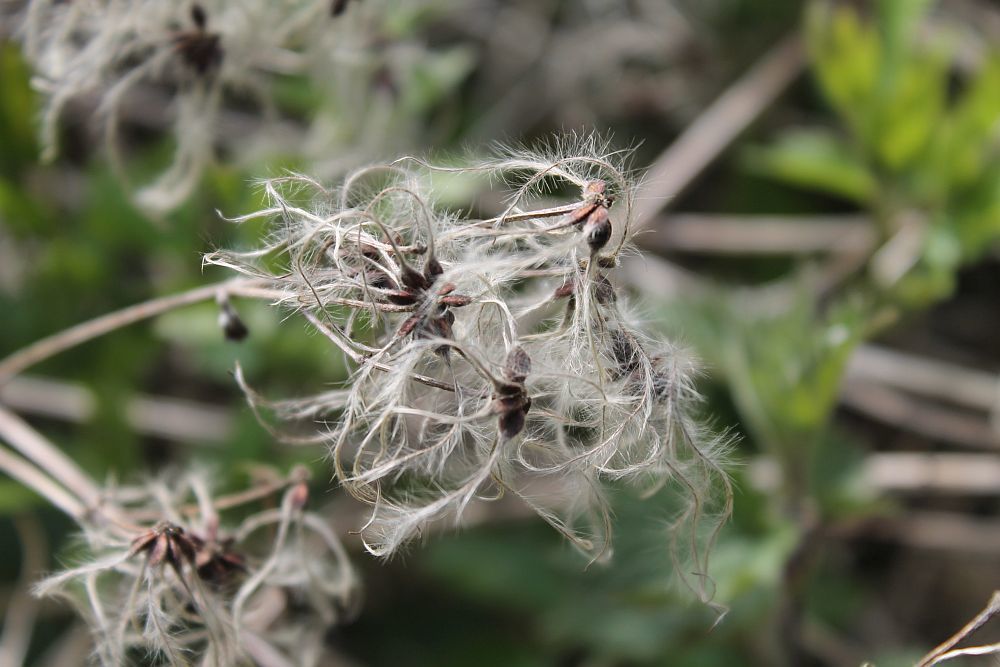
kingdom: Plantae
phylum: Tracheophyta
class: Magnoliopsida
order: Ranunculales
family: Ranunculaceae
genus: Clematis
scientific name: Clematis vitalba
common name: Evergreen clematis
